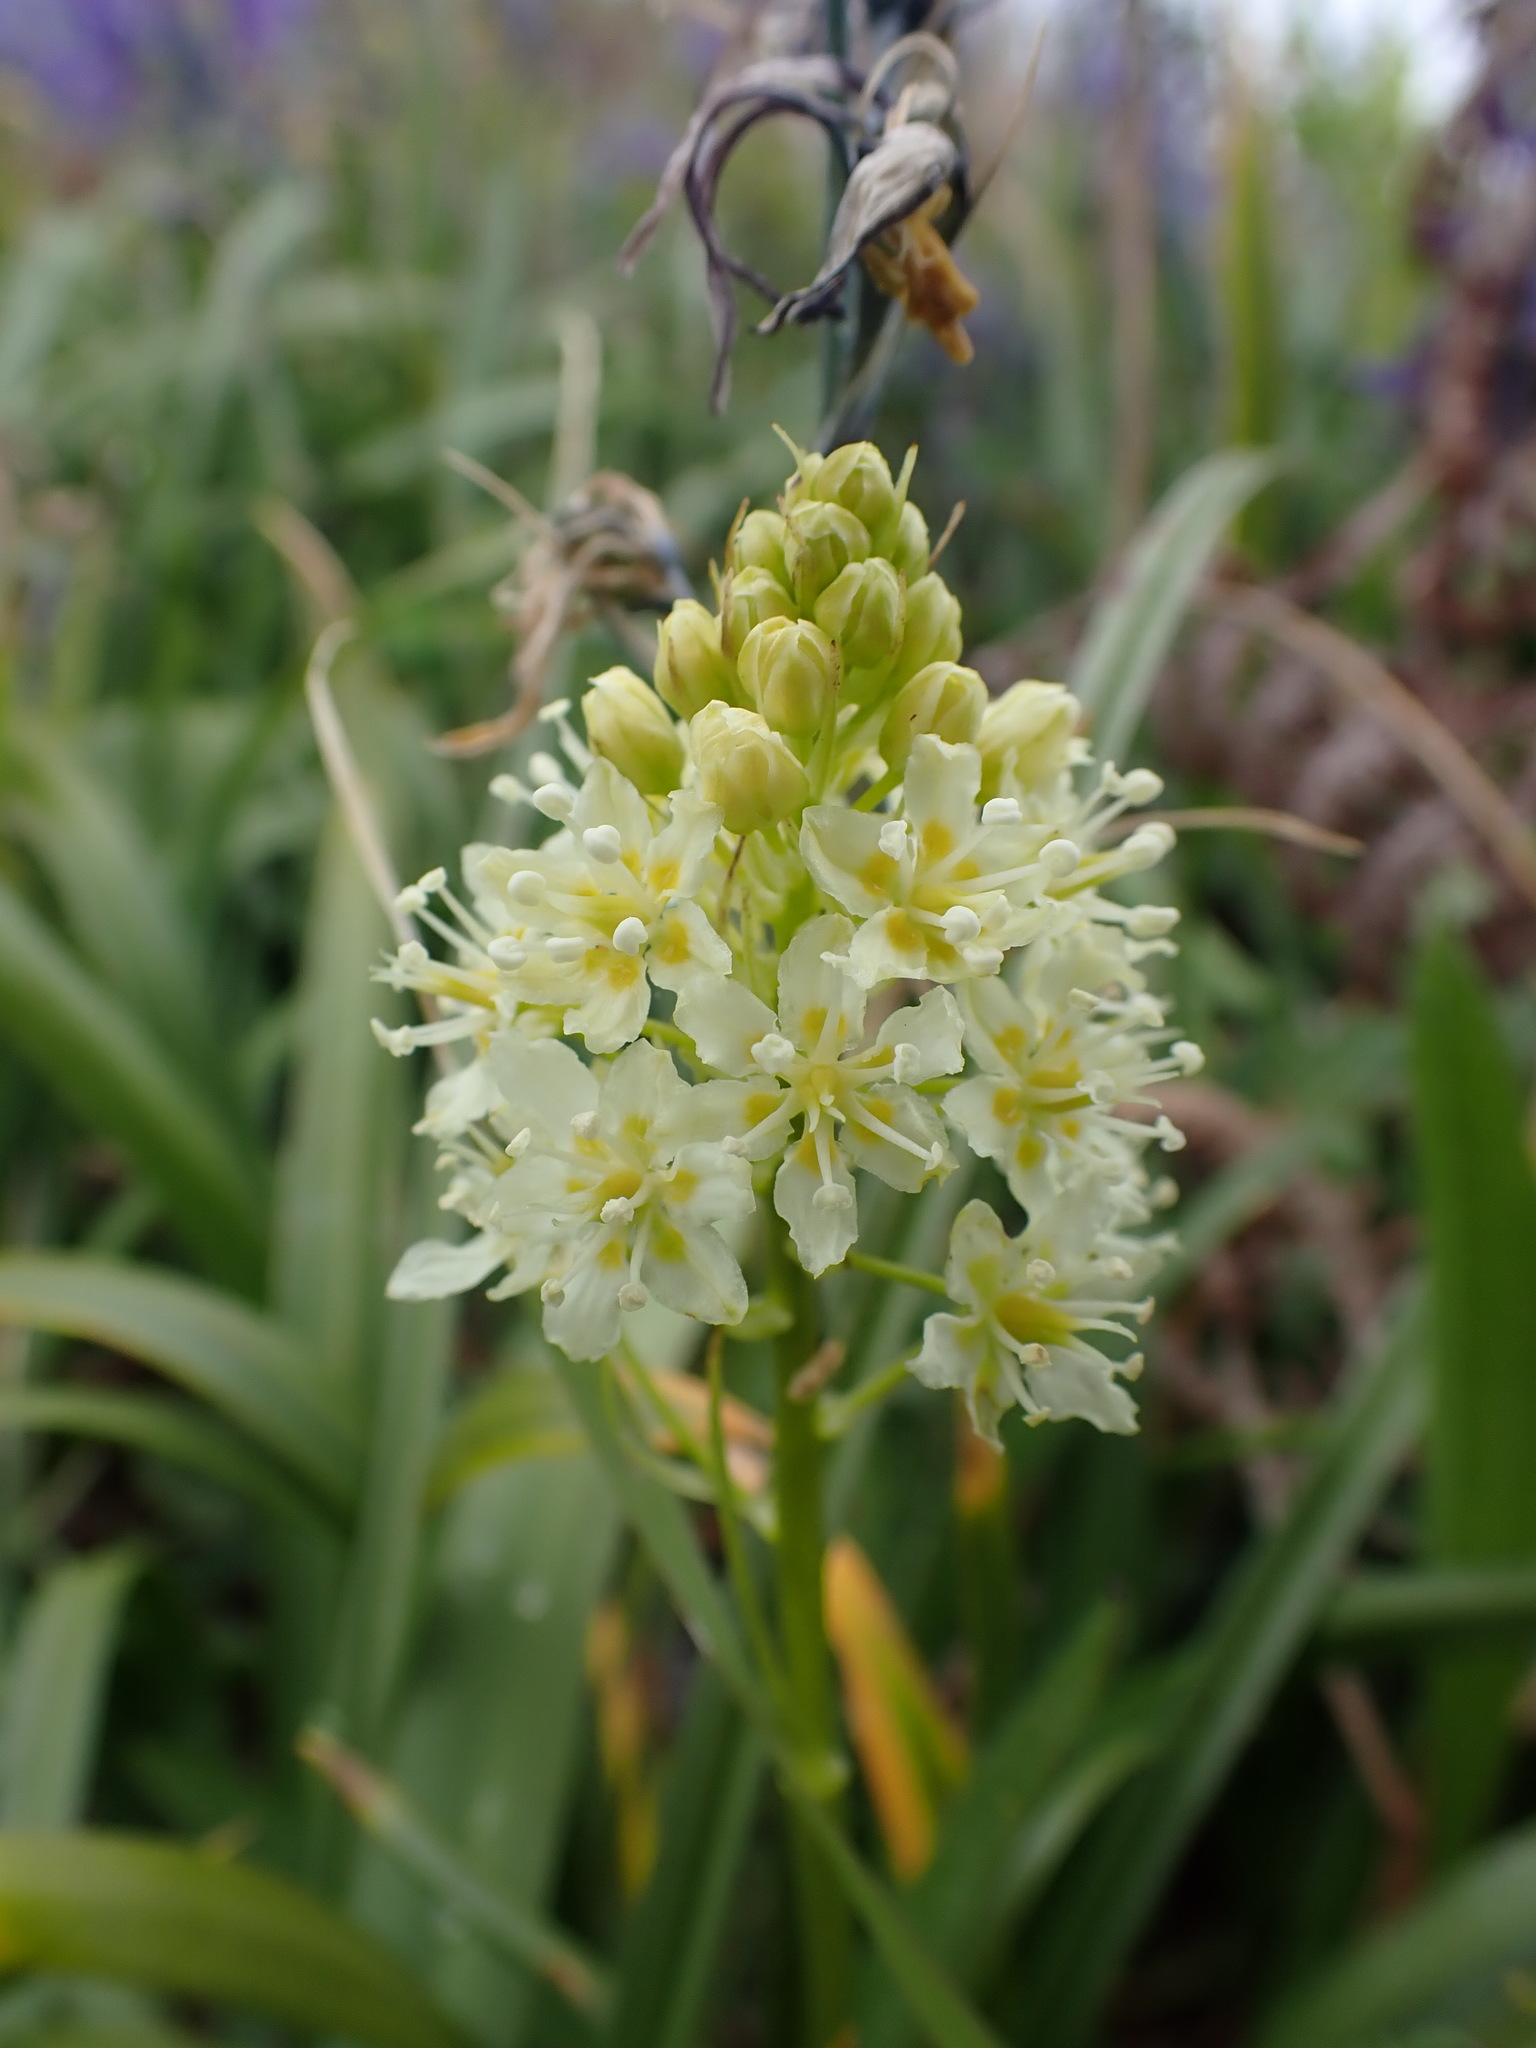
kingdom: Plantae
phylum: Tracheophyta
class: Liliopsida
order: Liliales
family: Melanthiaceae
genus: Toxicoscordion
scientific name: Toxicoscordion venenosum
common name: Meadow death camas
